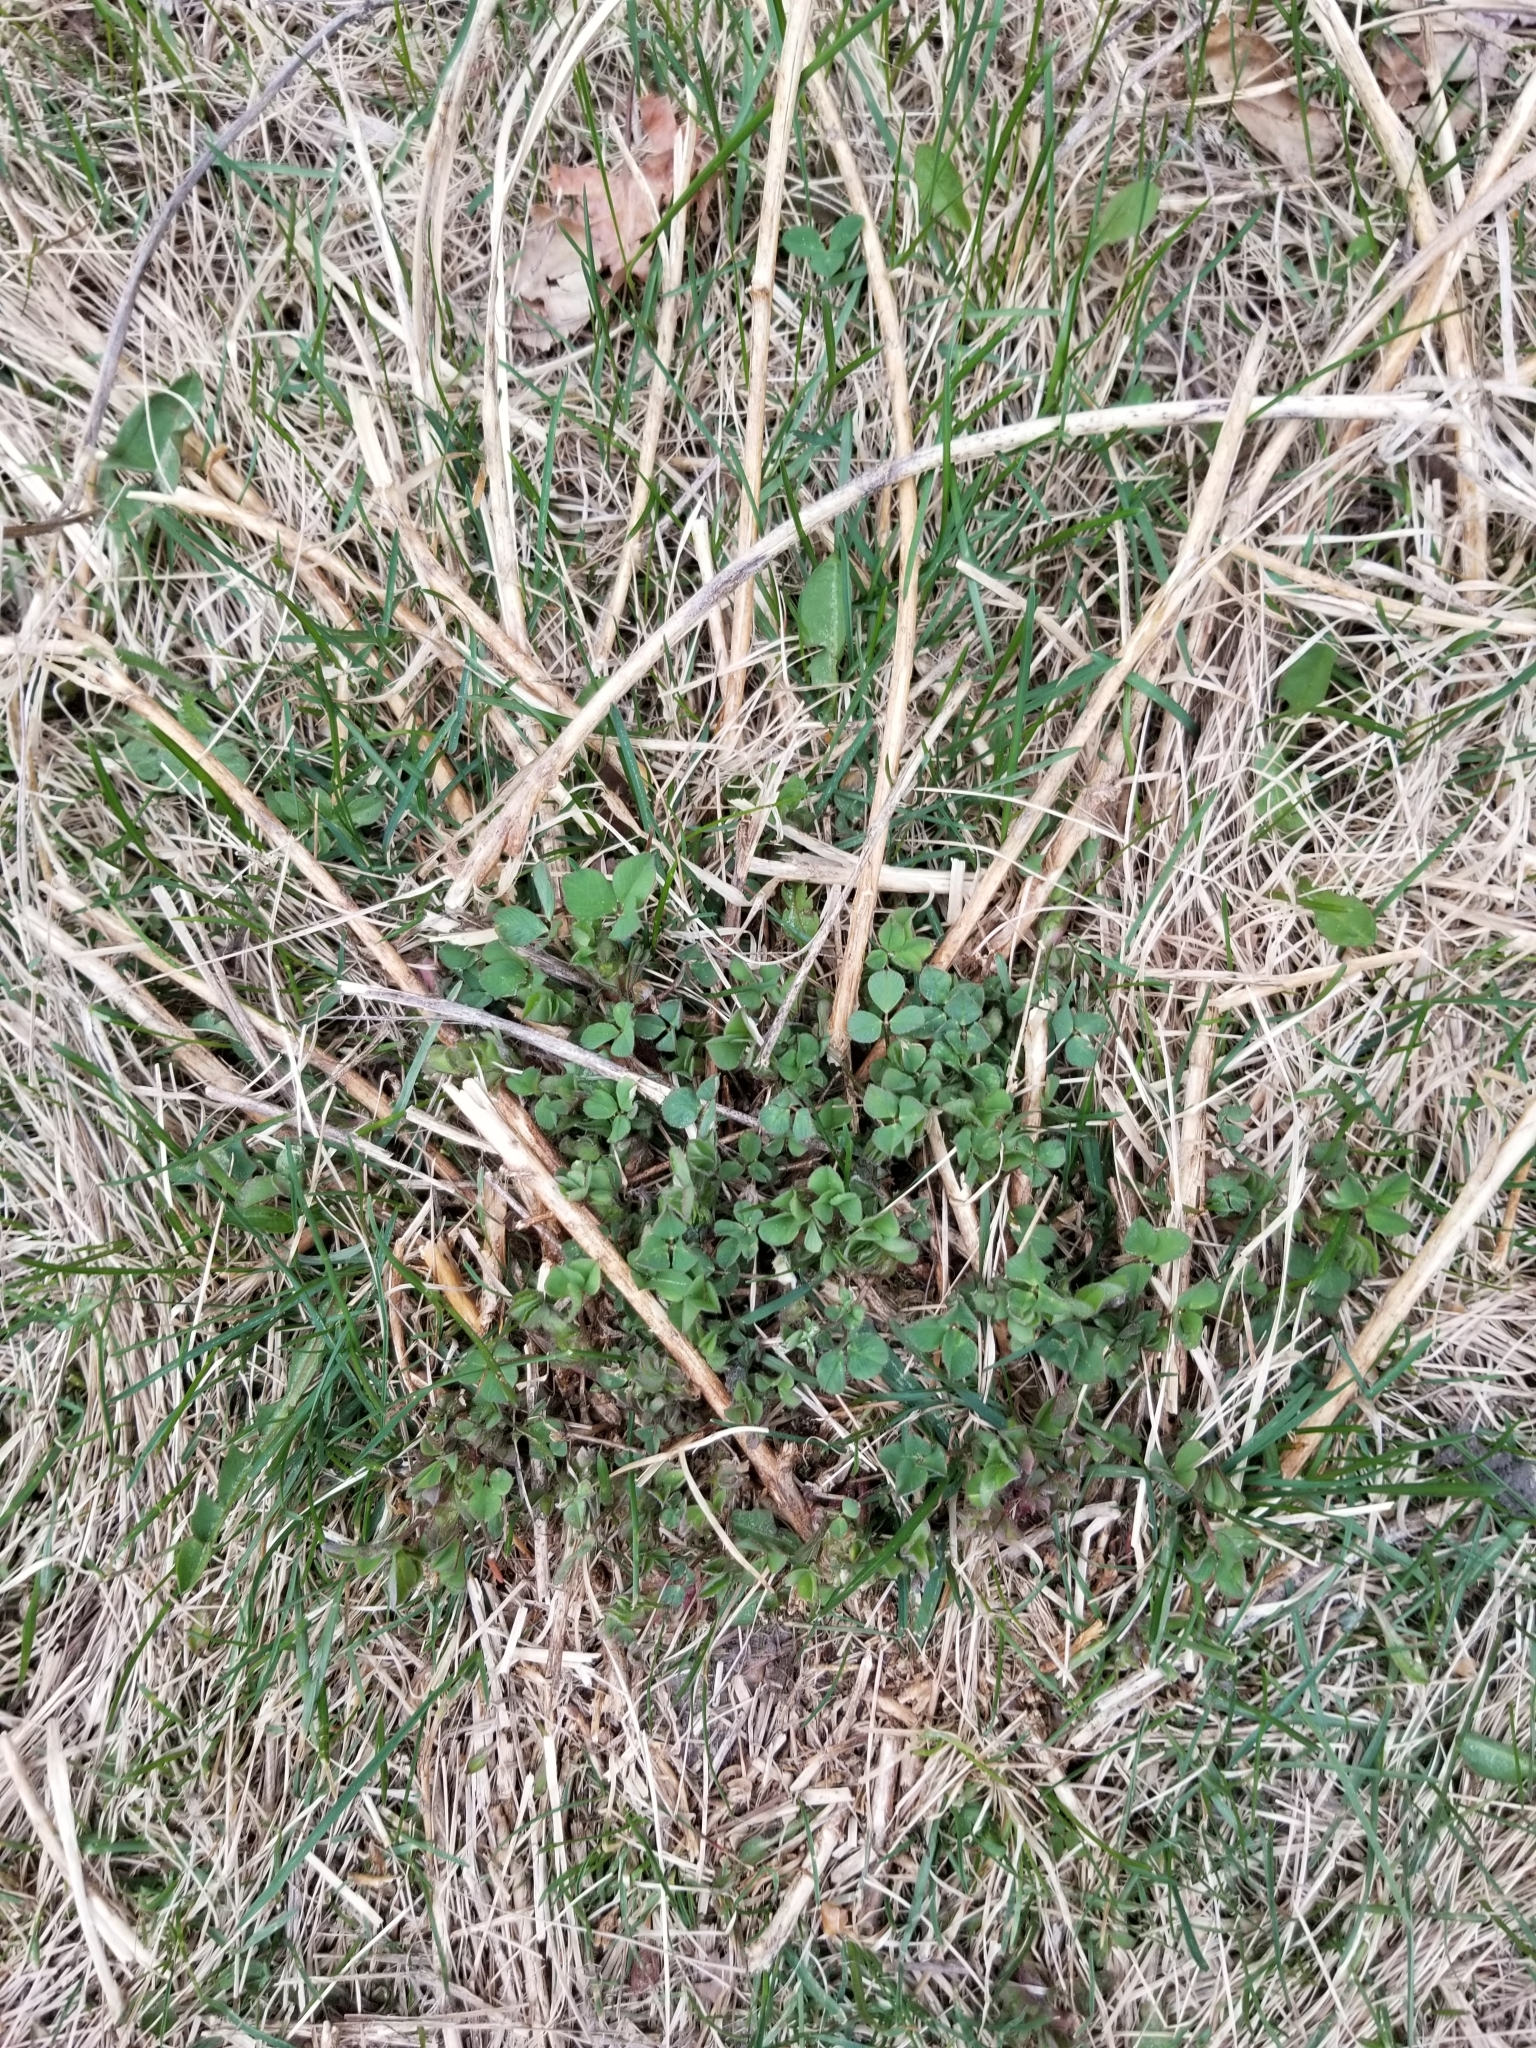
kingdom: Plantae
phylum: Tracheophyta
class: Magnoliopsida
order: Fabales
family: Fabaceae
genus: Medicago
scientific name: Medicago sativa
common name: Alfalfa
